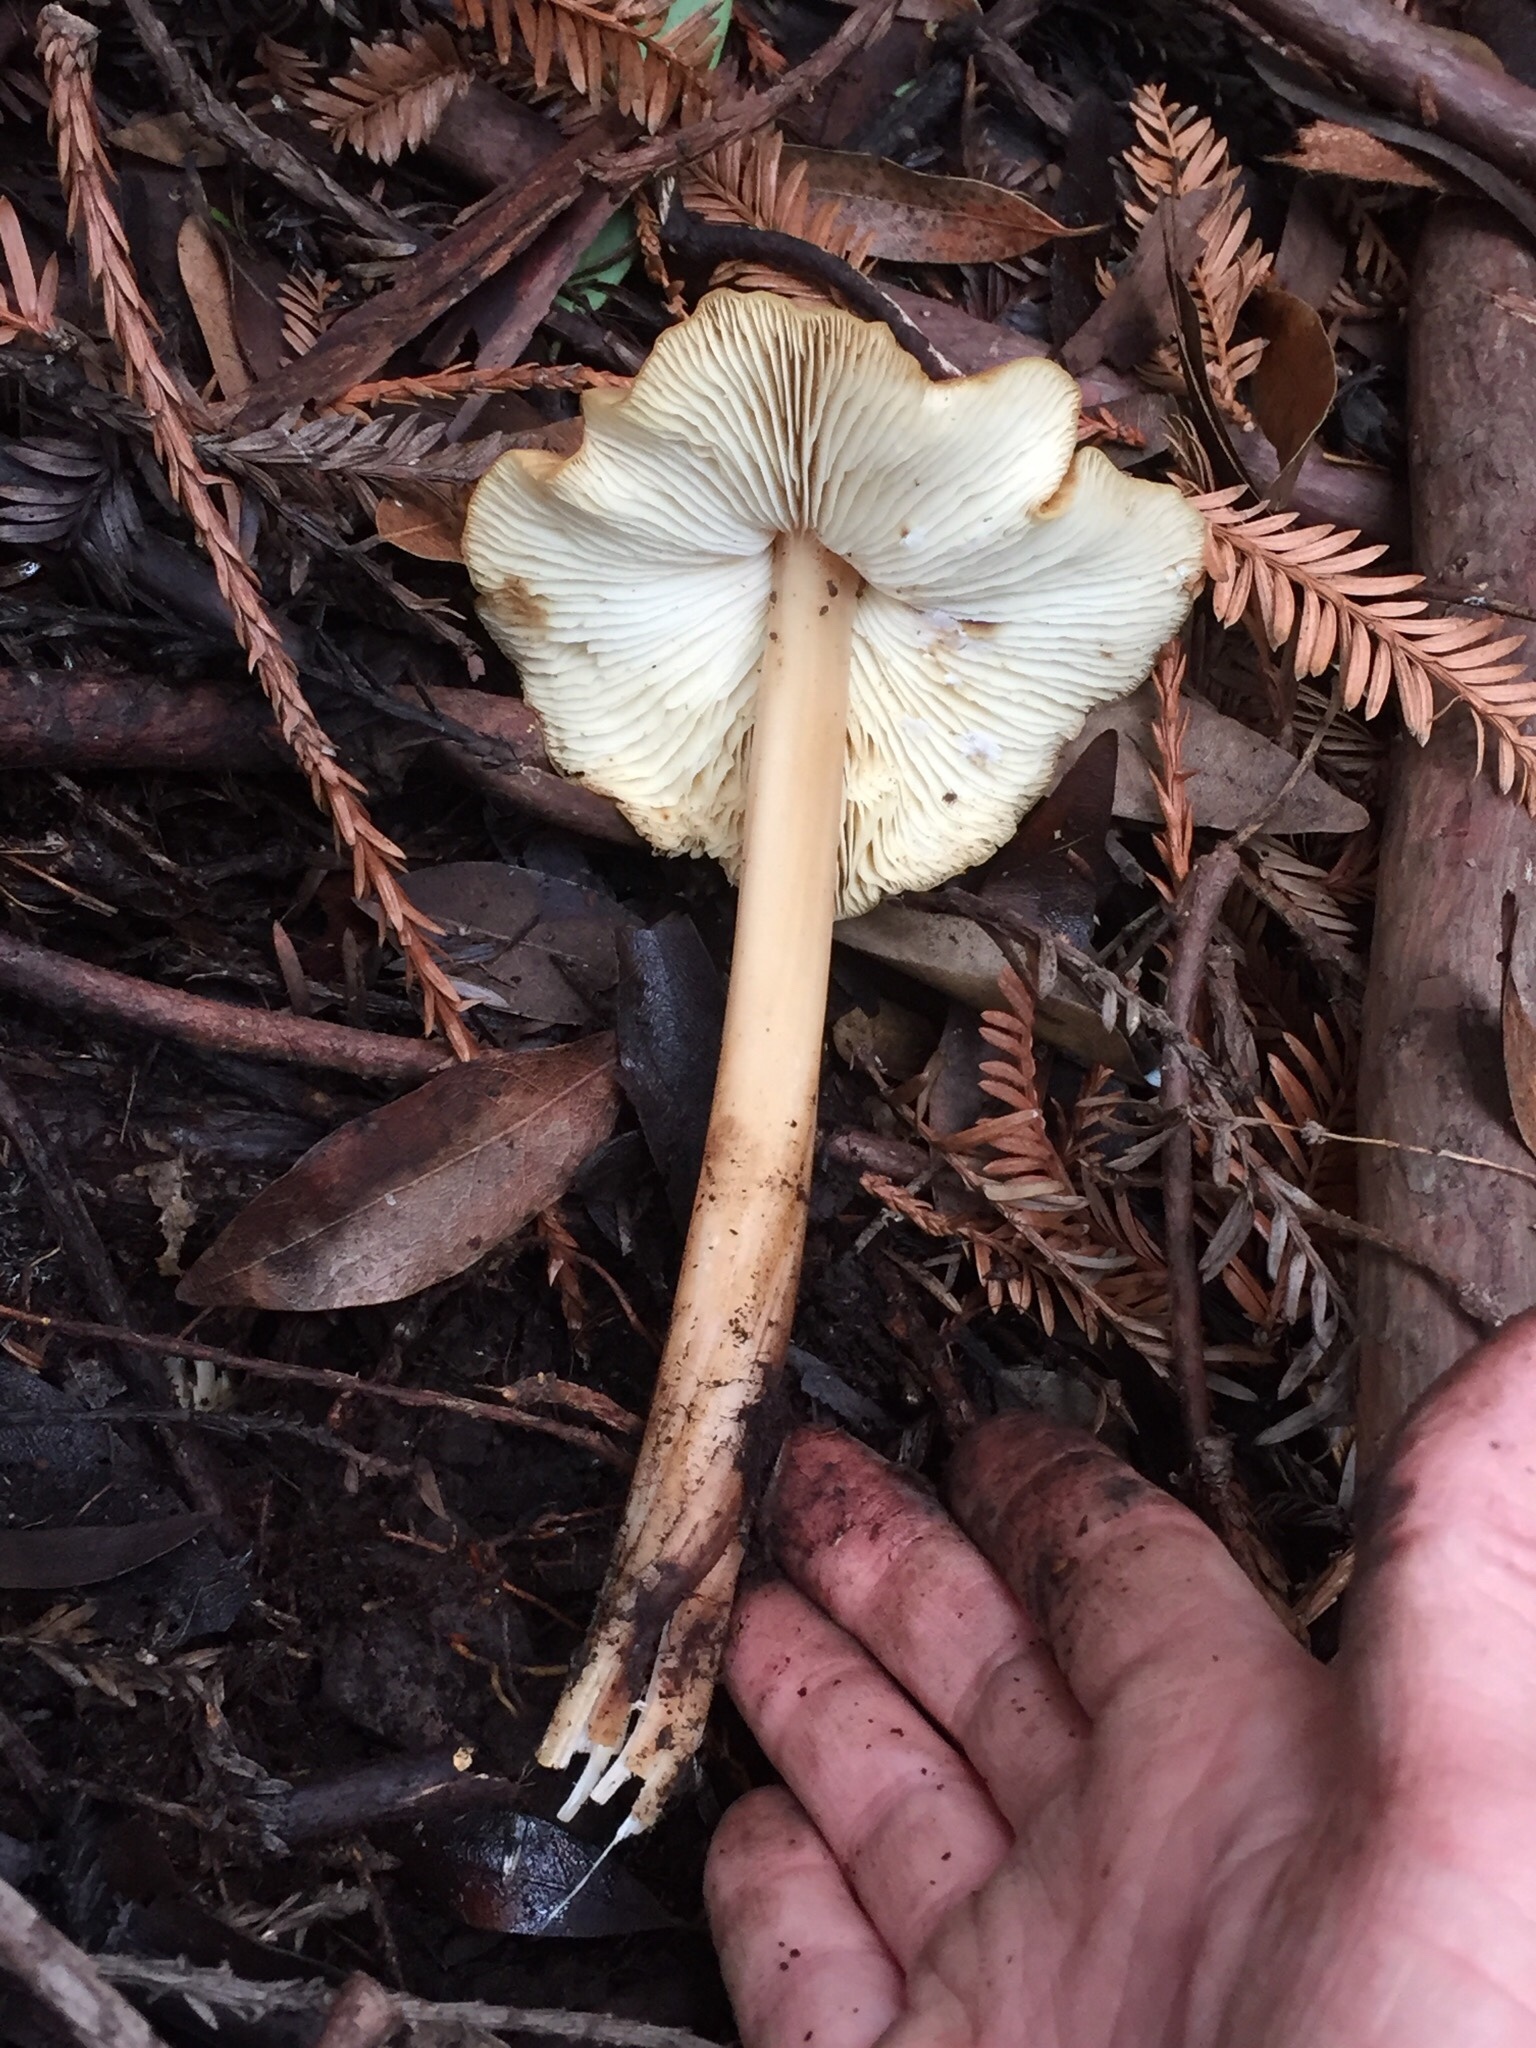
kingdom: Fungi
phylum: Basidiomycota
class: Agaricomycetes
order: Agaricales
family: Tricholomataceae
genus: Caulorhiza
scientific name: Caulorhiza umbonata
